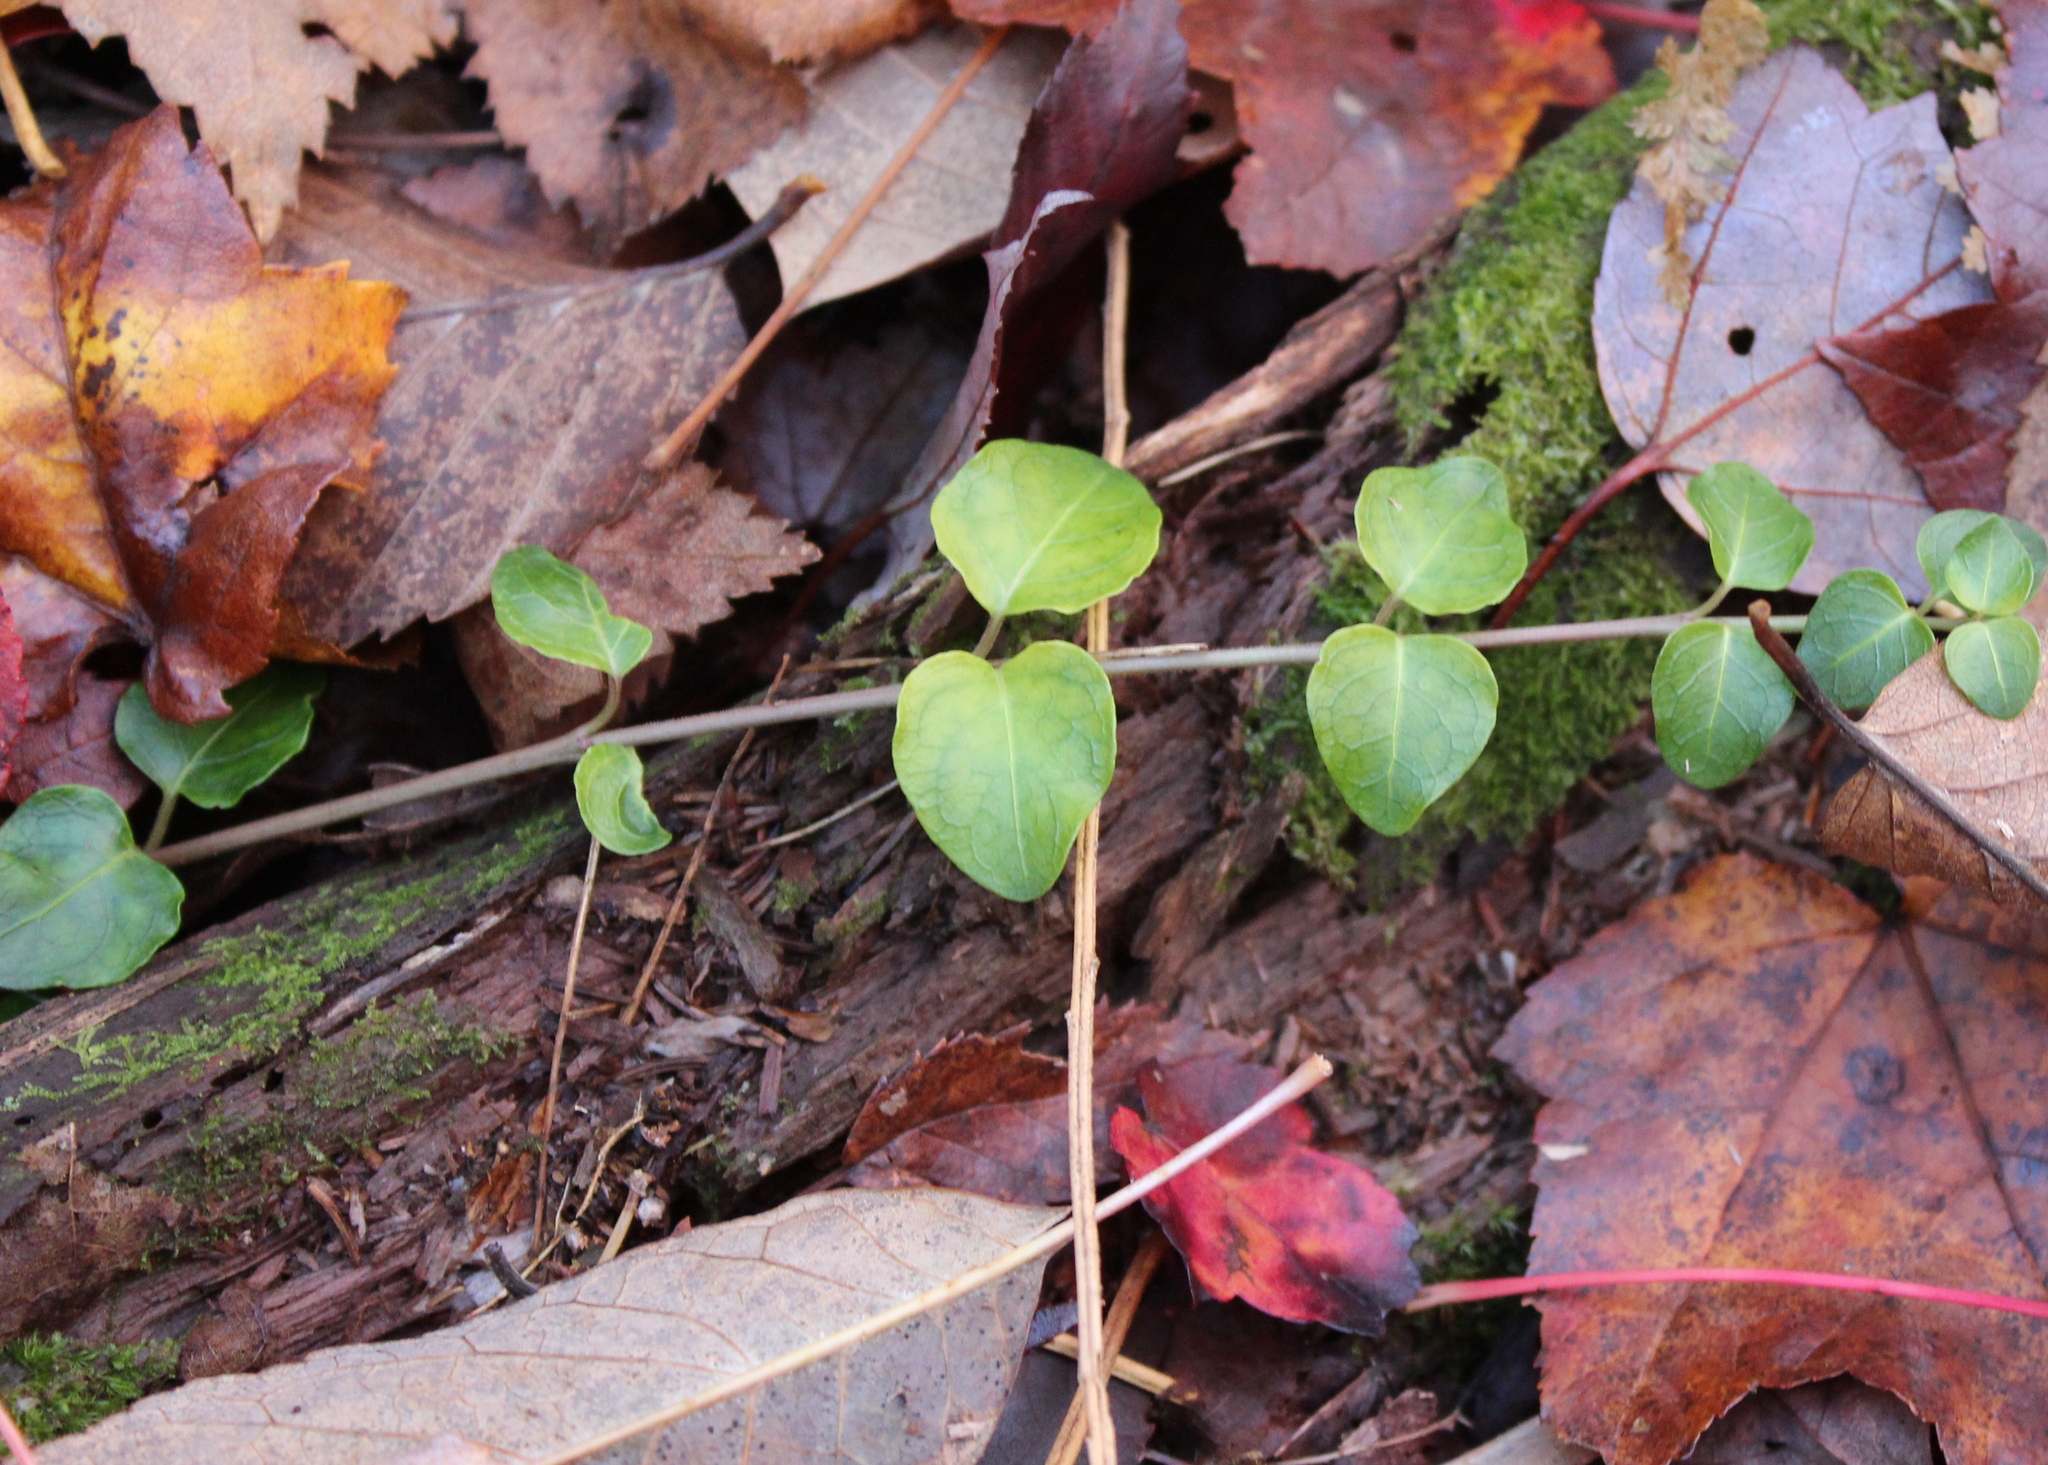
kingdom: Plantae
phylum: Tracheophyta
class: Magnoliopsida
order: Gentianales
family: Rubiaceae
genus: Mitchella
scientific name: Mitchella repens
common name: Partridge-berry
